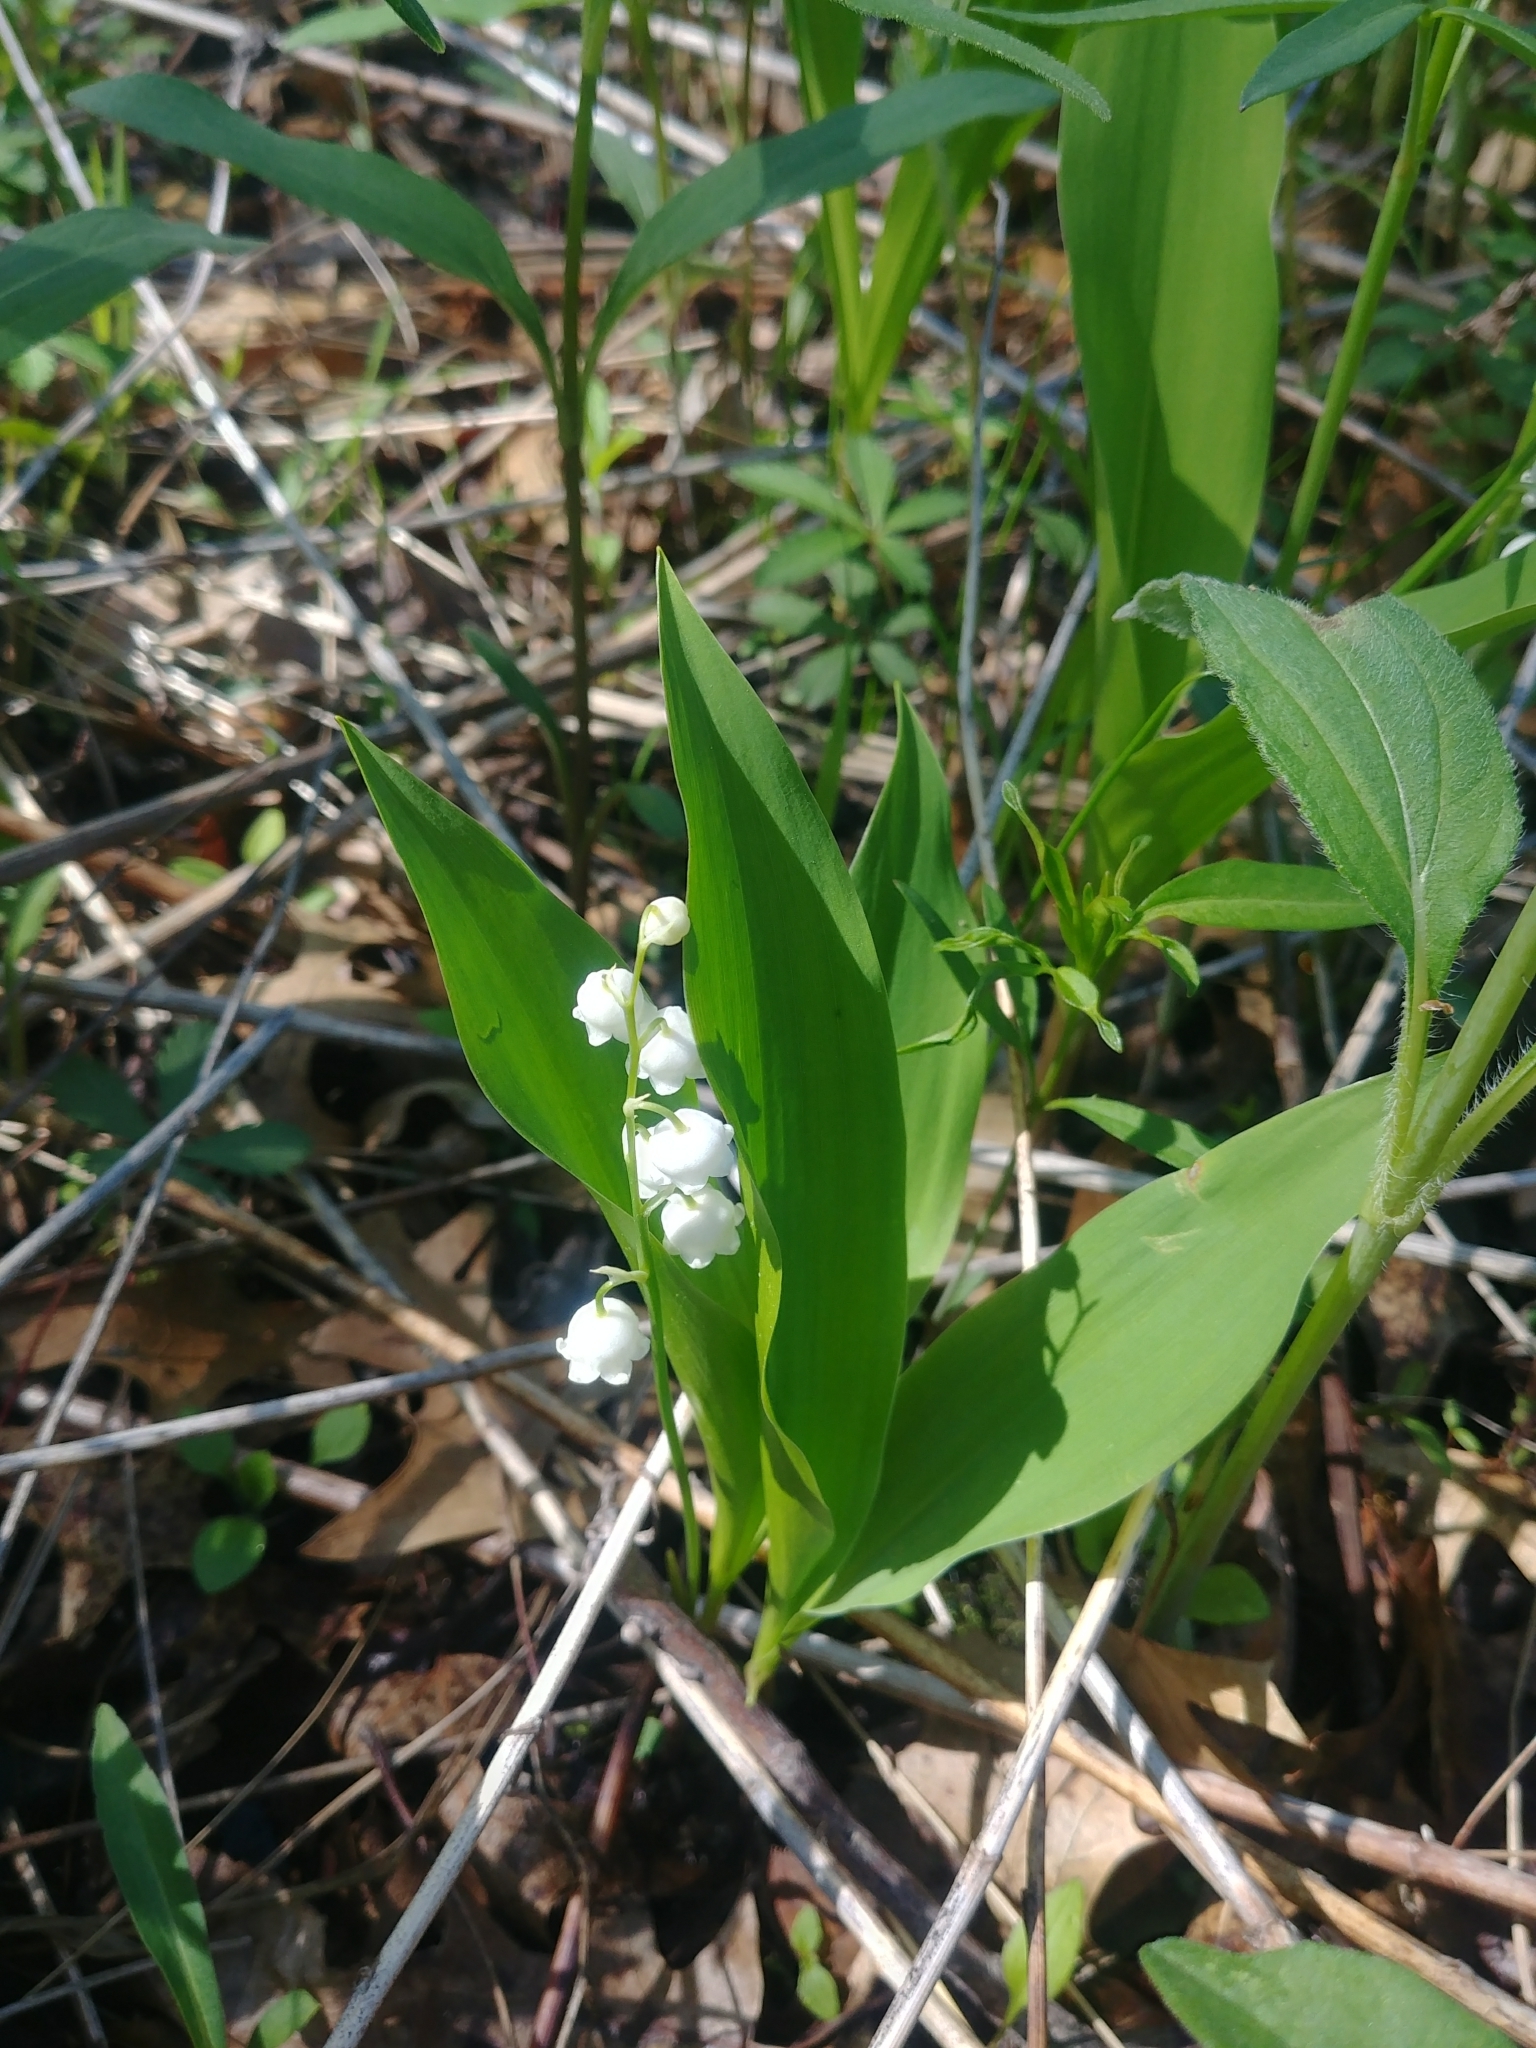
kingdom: Plantae
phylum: Tracheophyta
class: Liliopsida
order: Asparagales
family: Asparagaceae
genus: Convallaria
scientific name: Convallaria majalis
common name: Lily-of-the-valley
